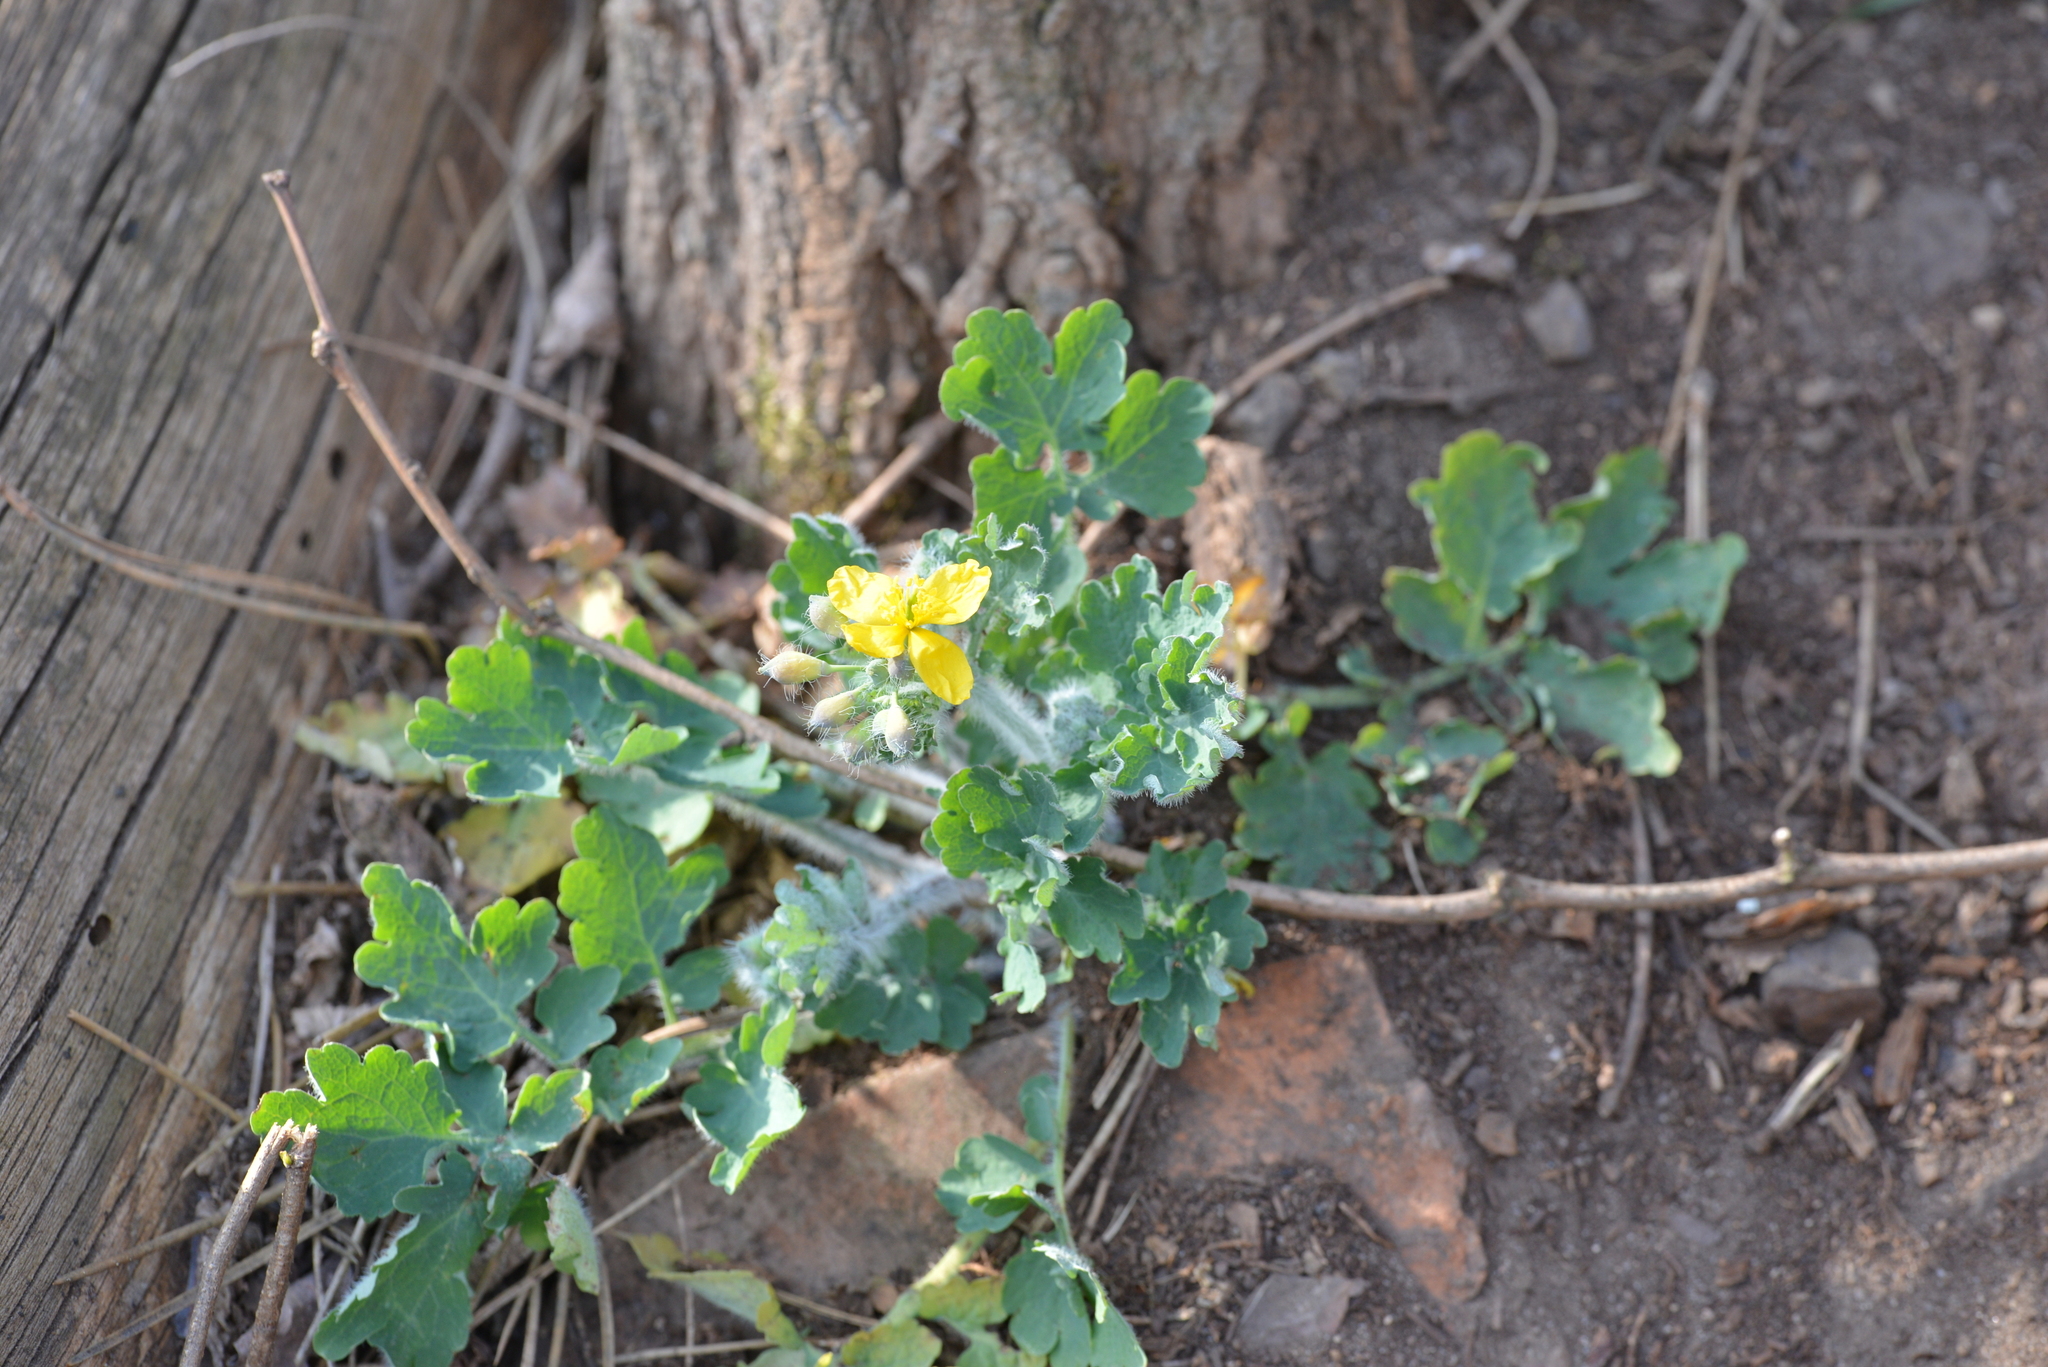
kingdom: Plantae
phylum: Tracheophyta
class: Magnoliopsida
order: Ranunculales
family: Papaveraceae
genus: Chelidonium
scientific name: Chelidonium majus
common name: Greater celandine
